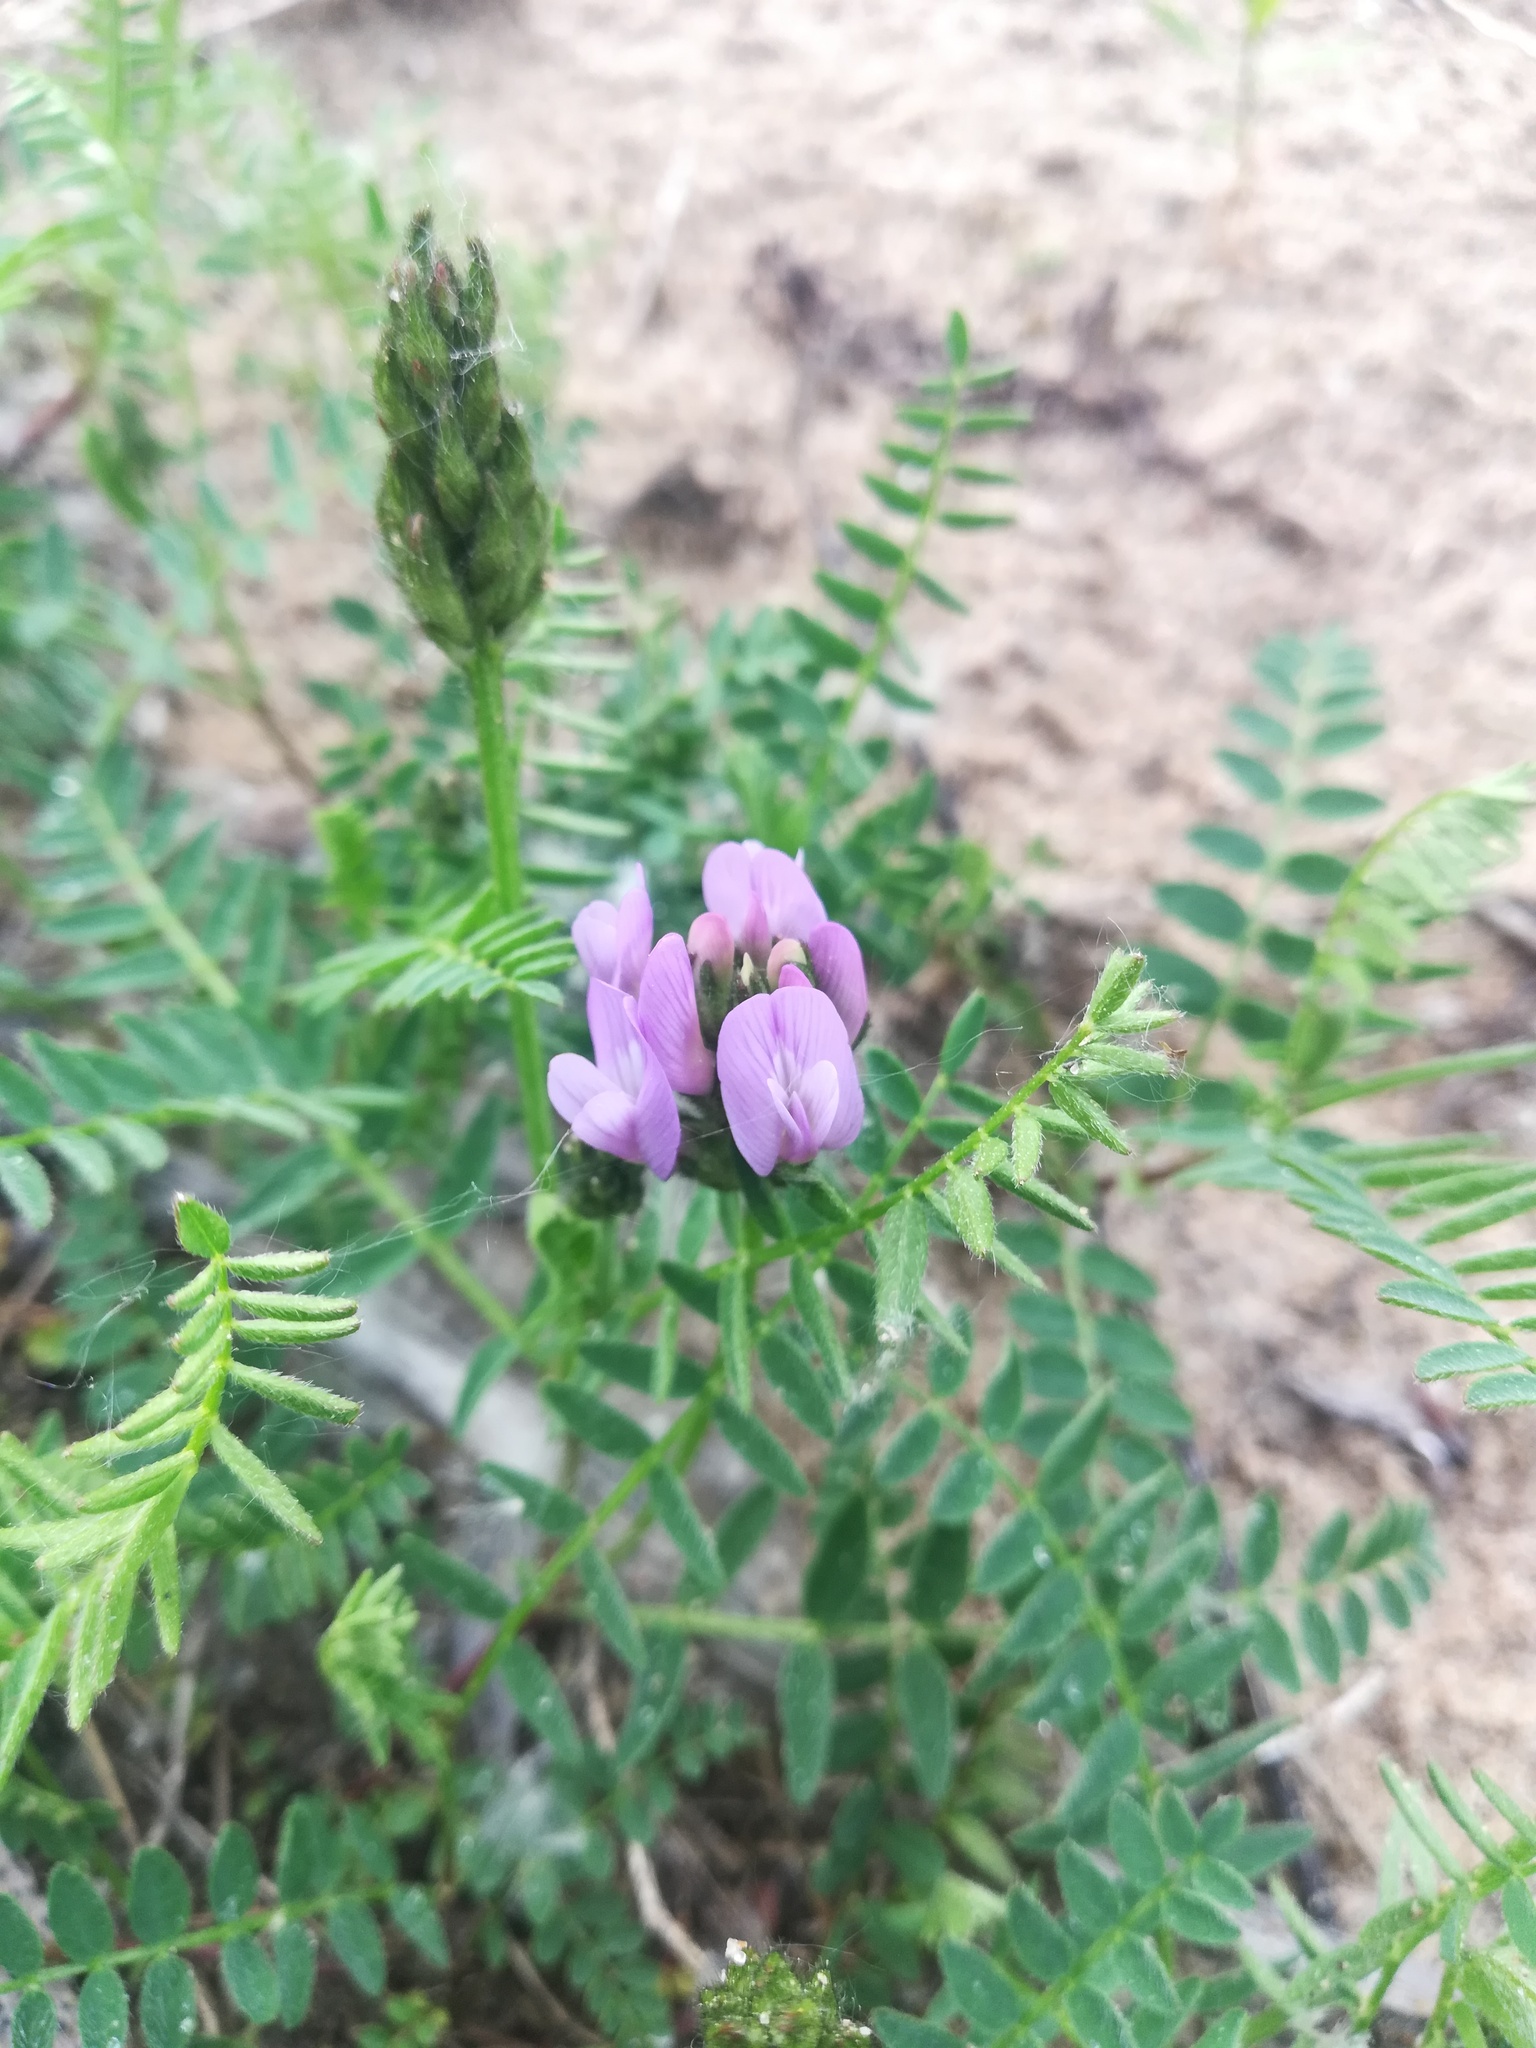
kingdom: Plantae
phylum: Tracheophyta
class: Magnoliopsida
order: Fabales
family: Fabaceae
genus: Astragalus
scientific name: Astragalus danicus
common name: Purple milk-vetch
